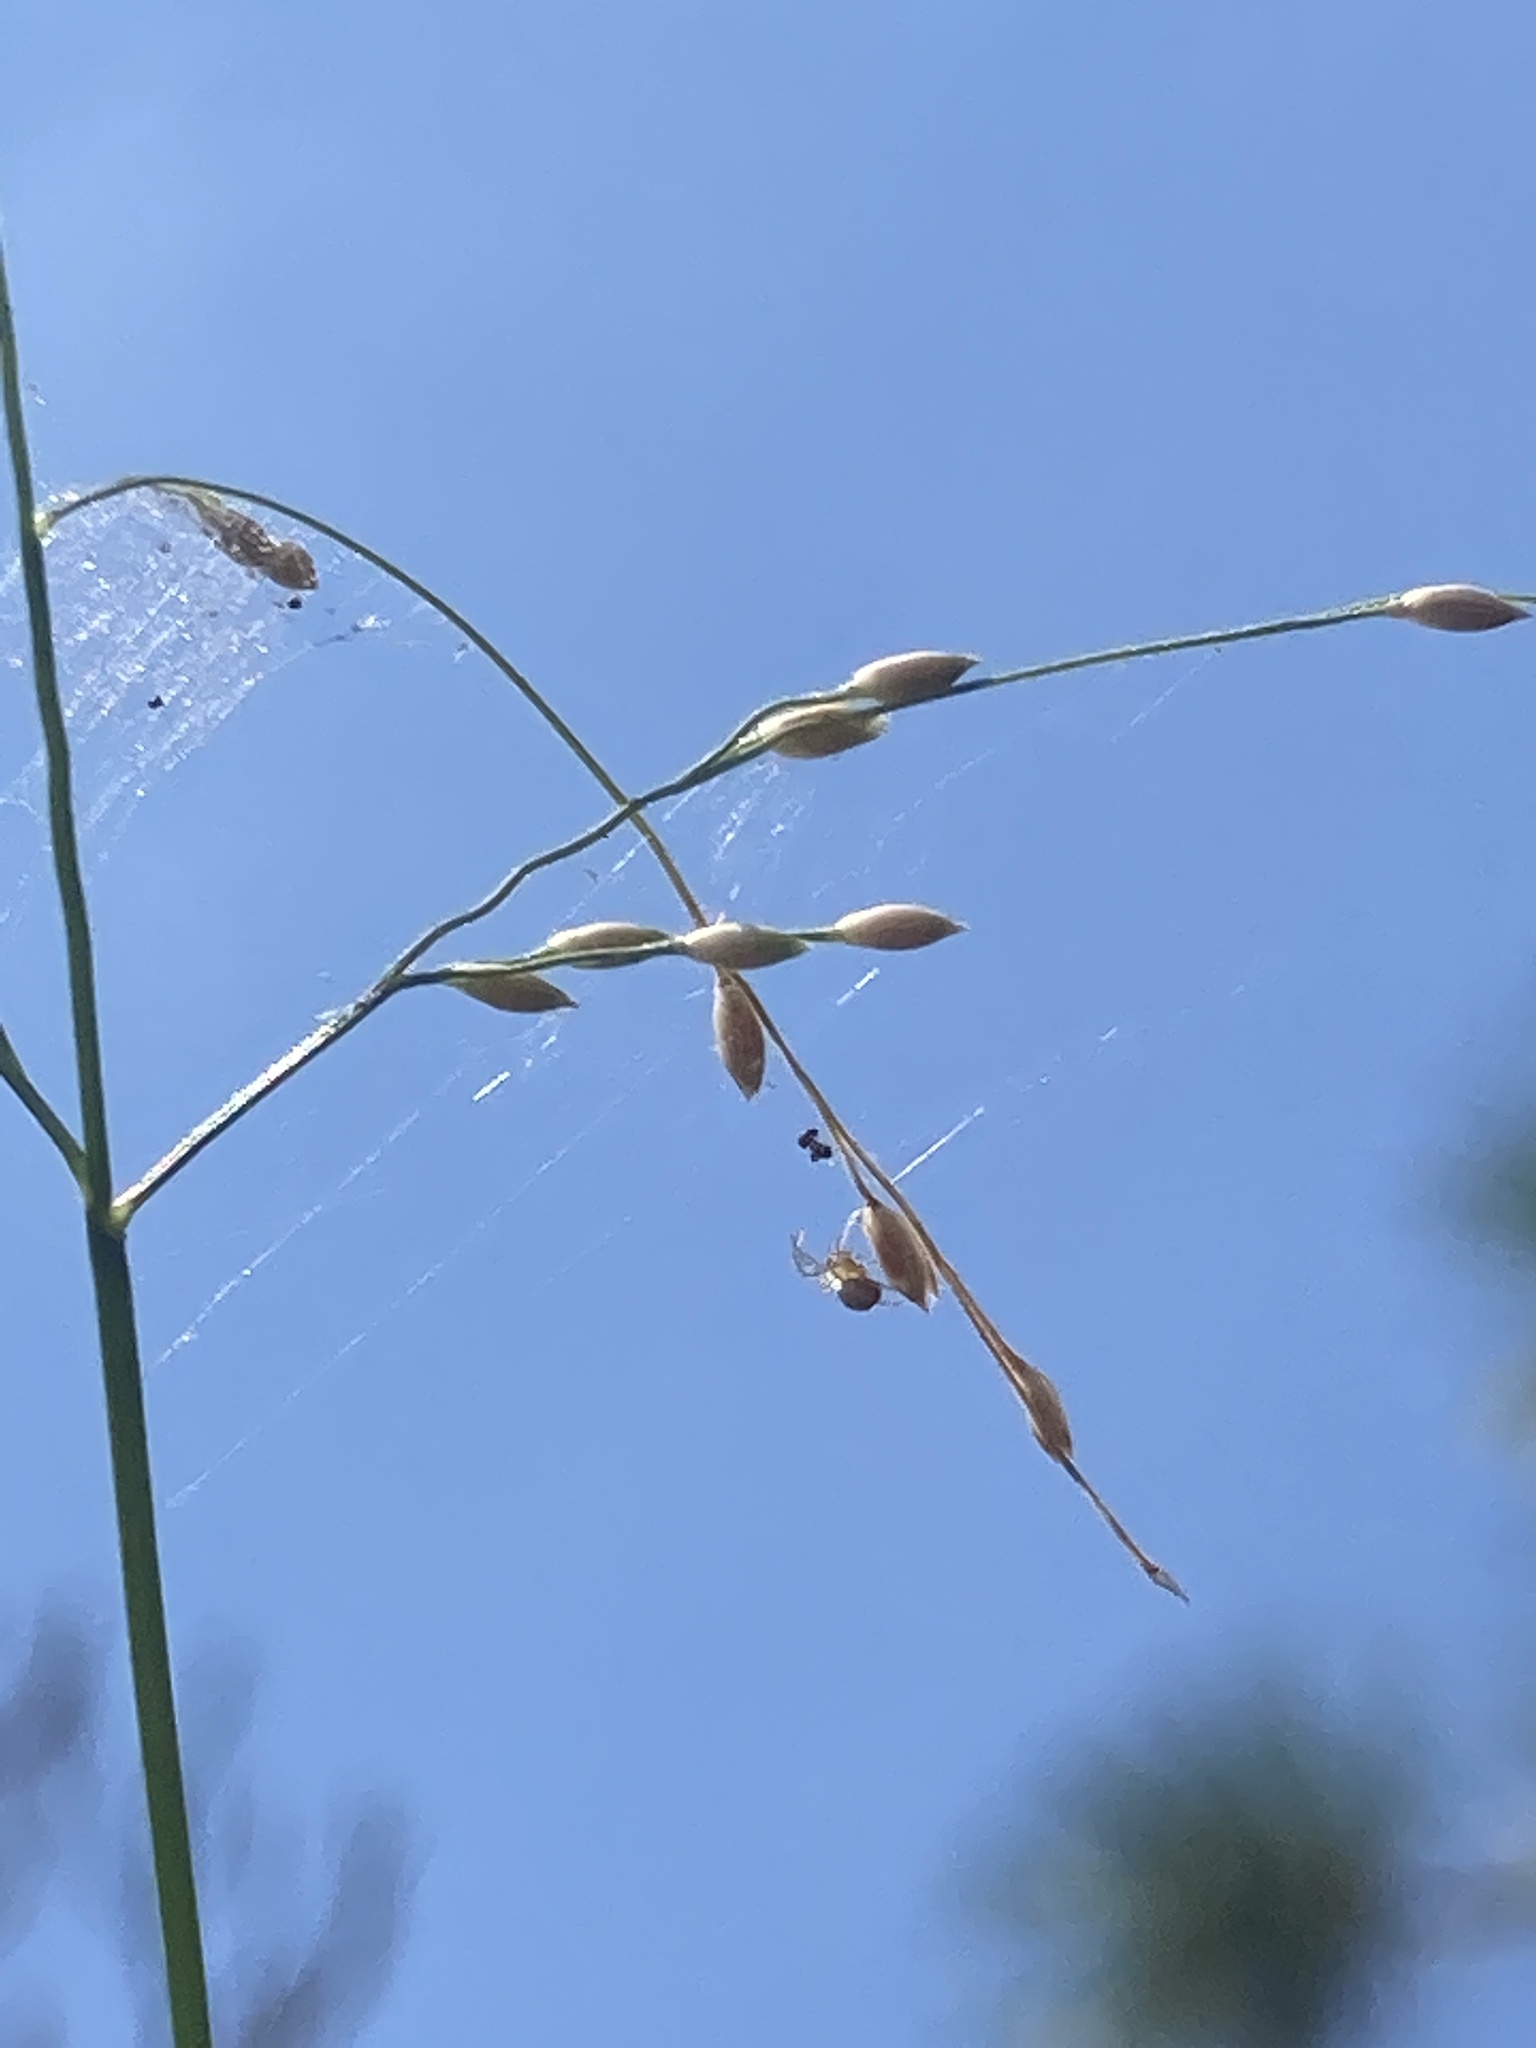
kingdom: Plantae
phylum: Tracheophyta
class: Liliopsida
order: Poales
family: Poaceae
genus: Panicum
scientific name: Panicum repens
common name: Torpedo grass
